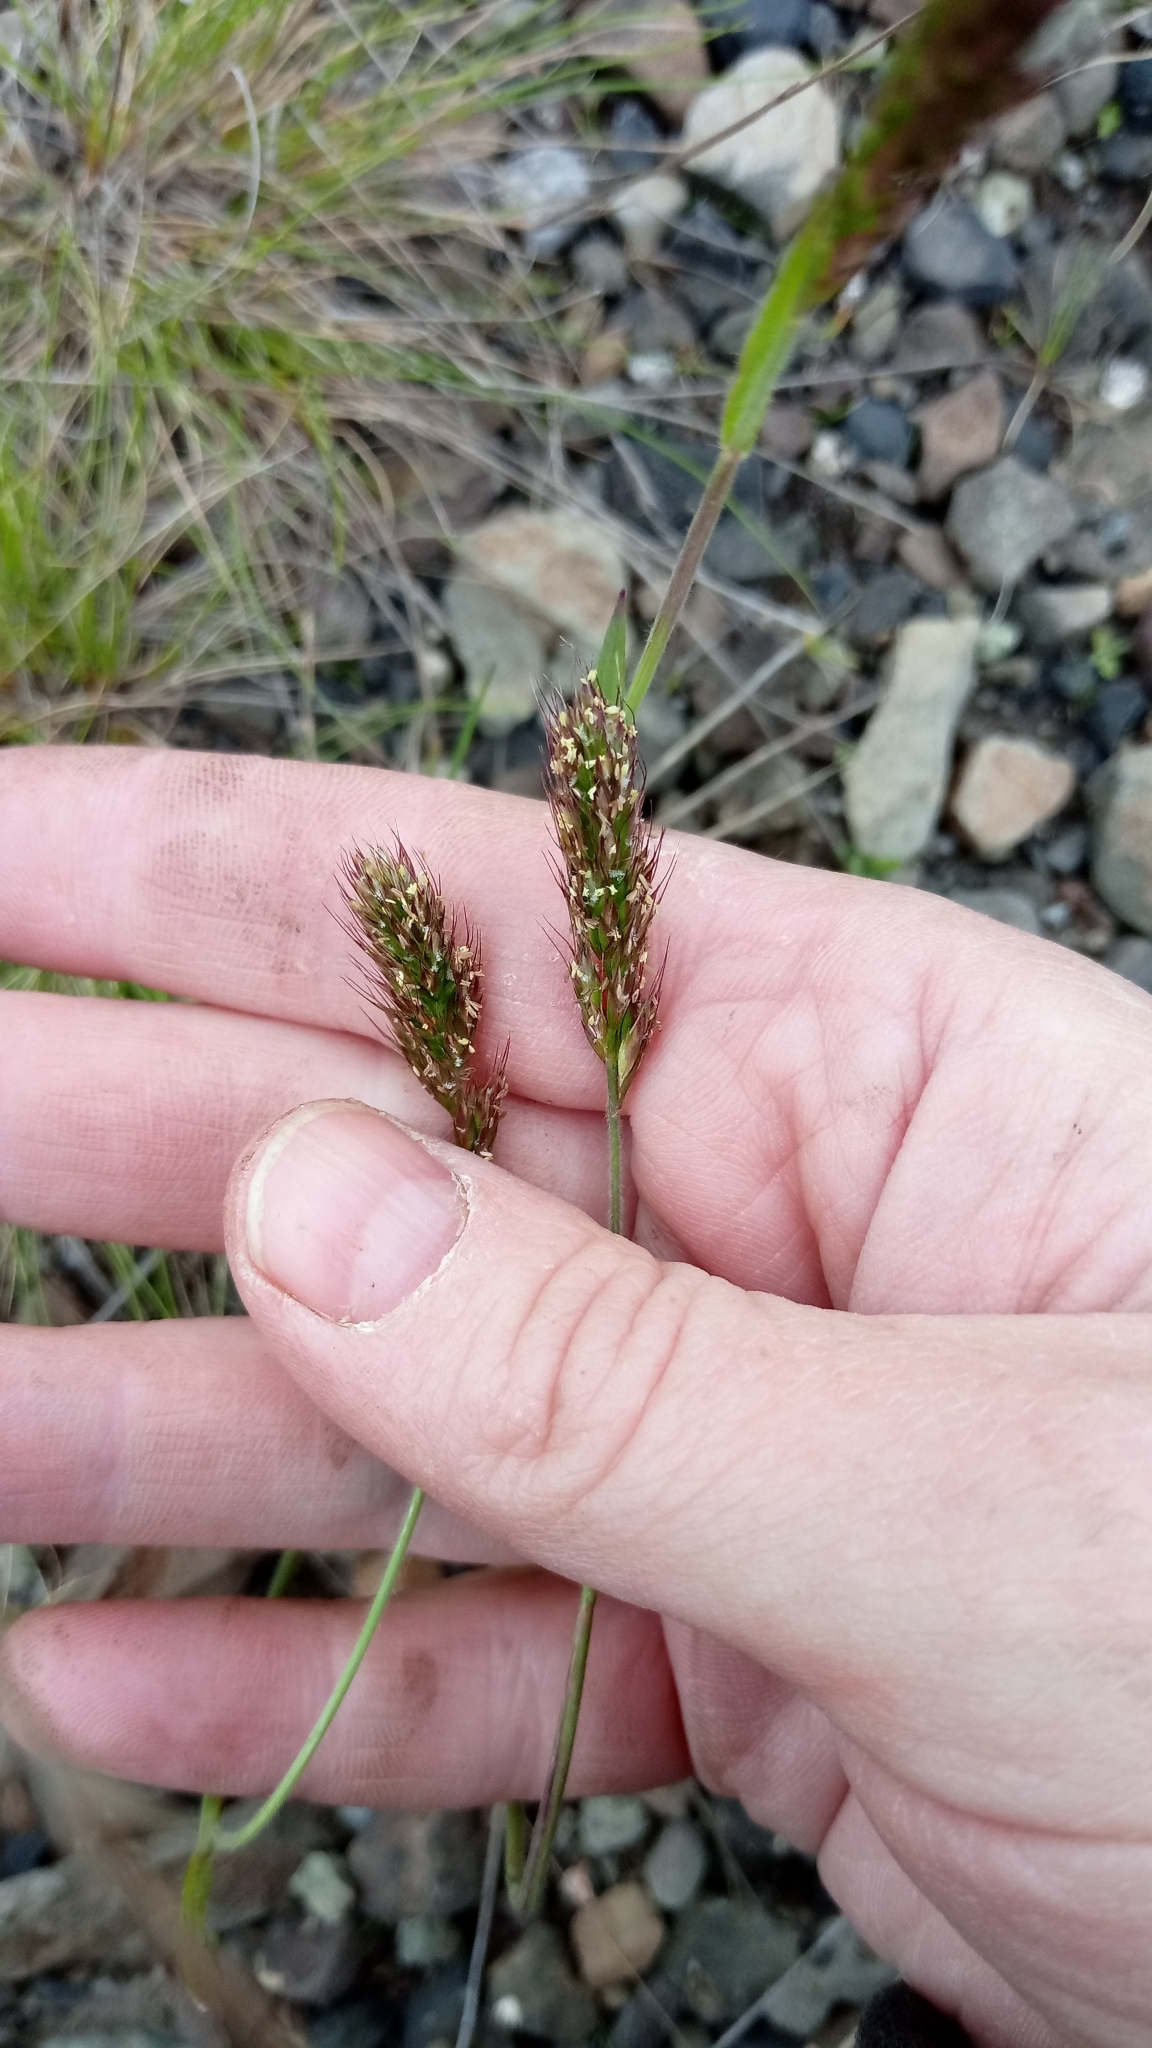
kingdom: Plantae
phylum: Tracheophyta
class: Liliopsida
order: Poales
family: Poaceae
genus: Koeleria
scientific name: Koeleria spicata
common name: Mountain trisetum
